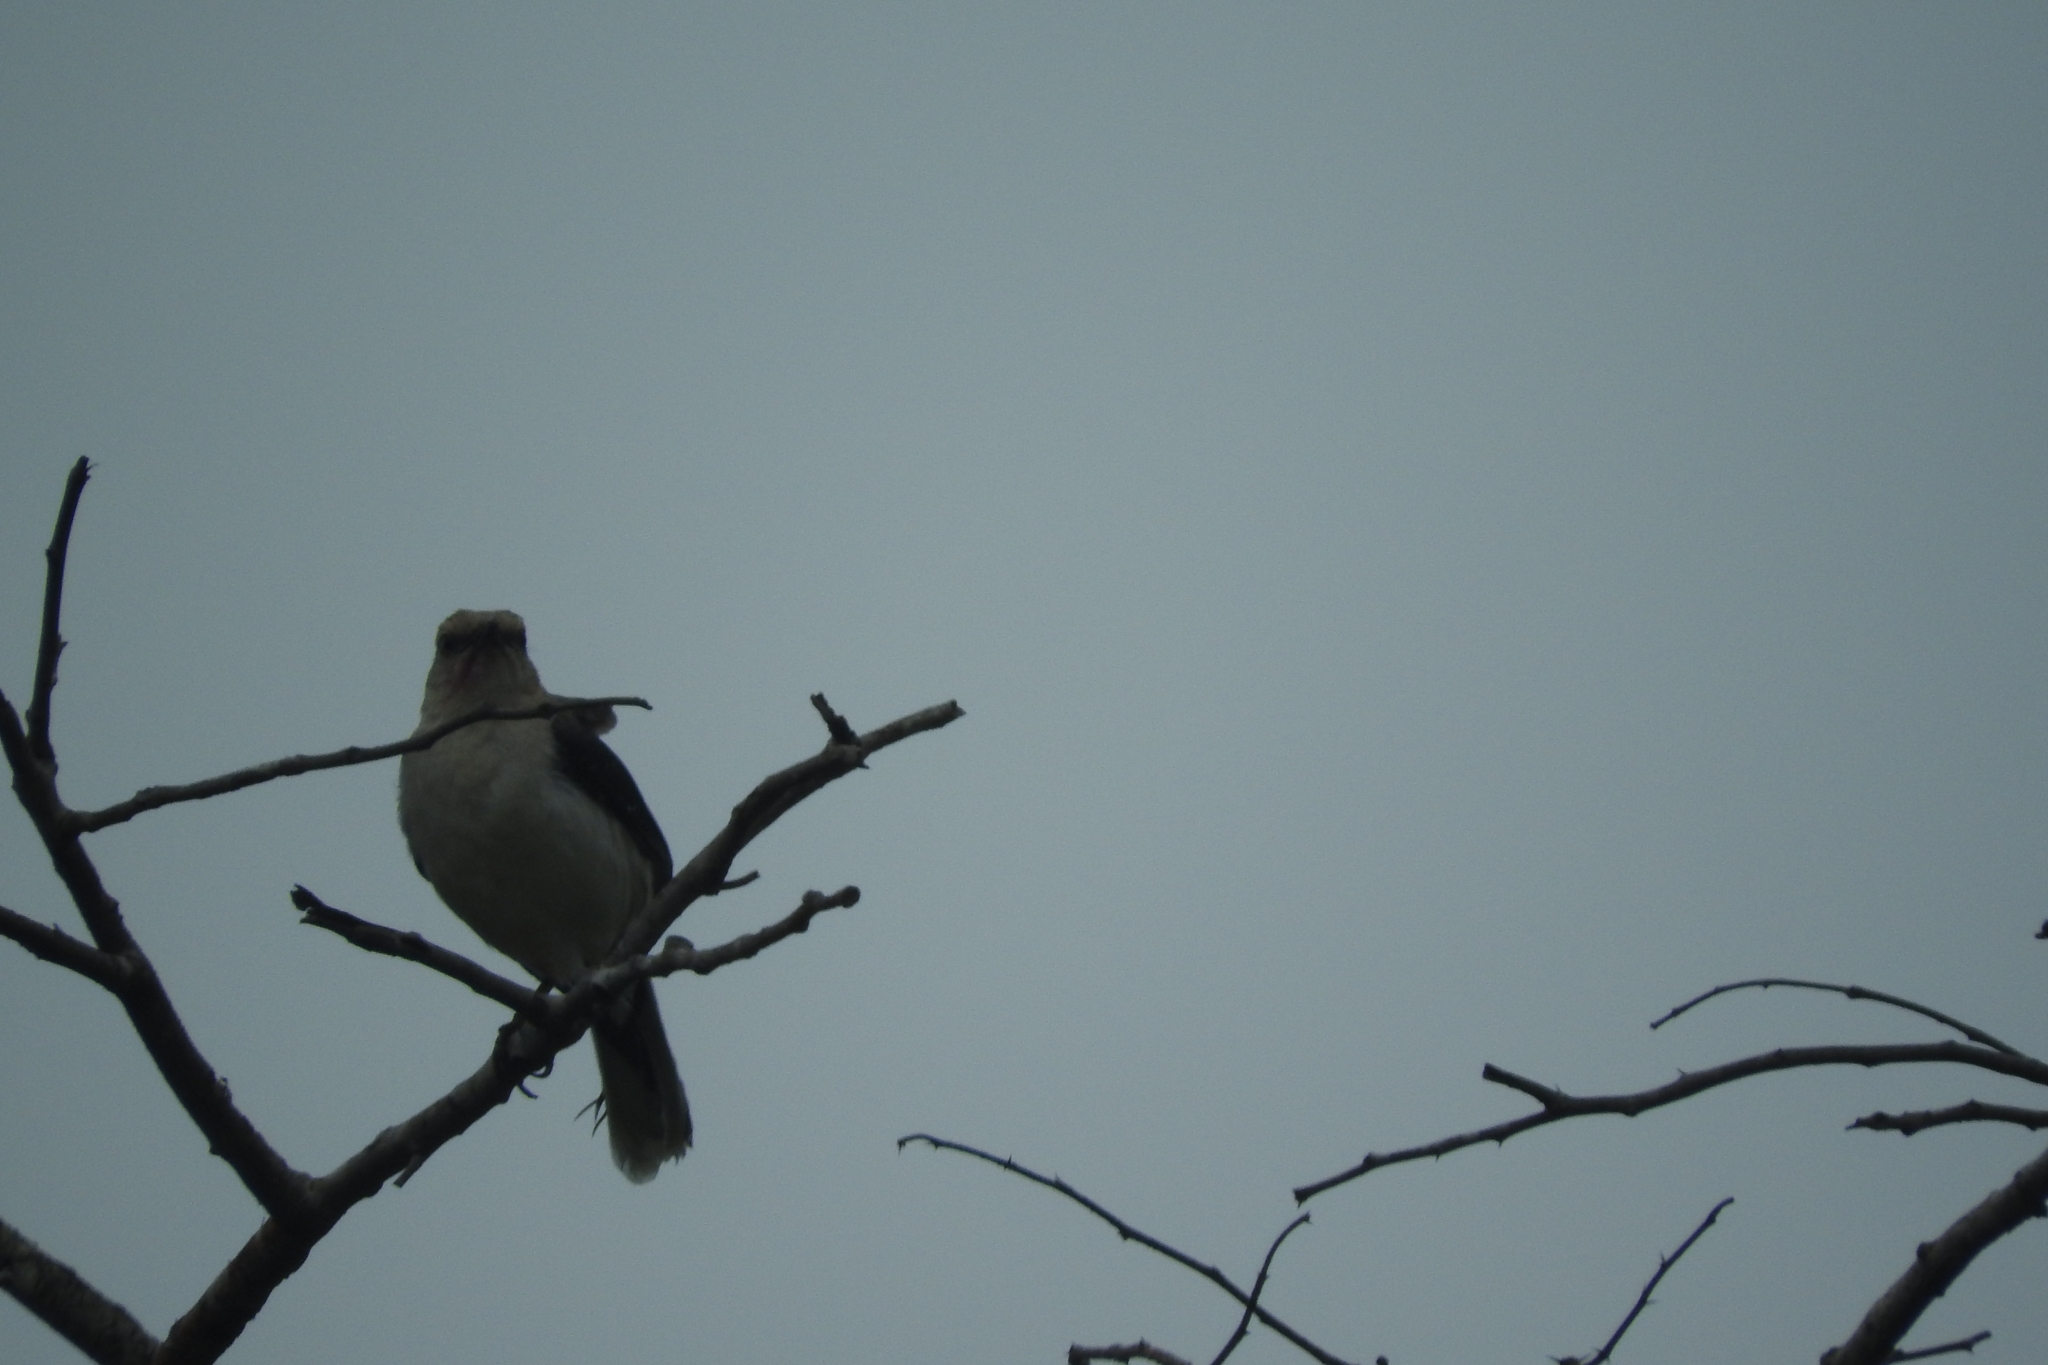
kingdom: Animalia
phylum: Chordata
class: Aves
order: Passeriformes
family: Mimidae
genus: Mimus
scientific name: Mimus gilvus
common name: Tropical mockingbird
